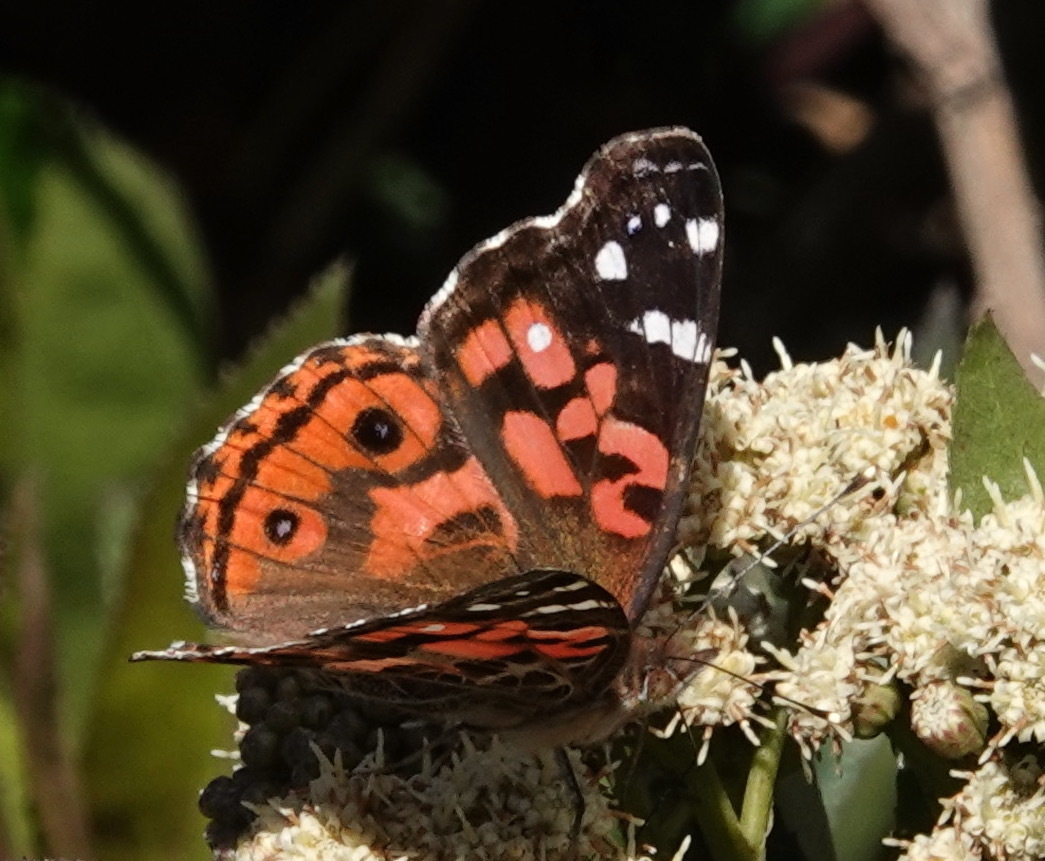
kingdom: Animalia
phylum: Arthropoda
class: Insecta
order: Lepidoptera
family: Nymphalidae
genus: Vanessa
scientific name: Vanessa braziliensis
